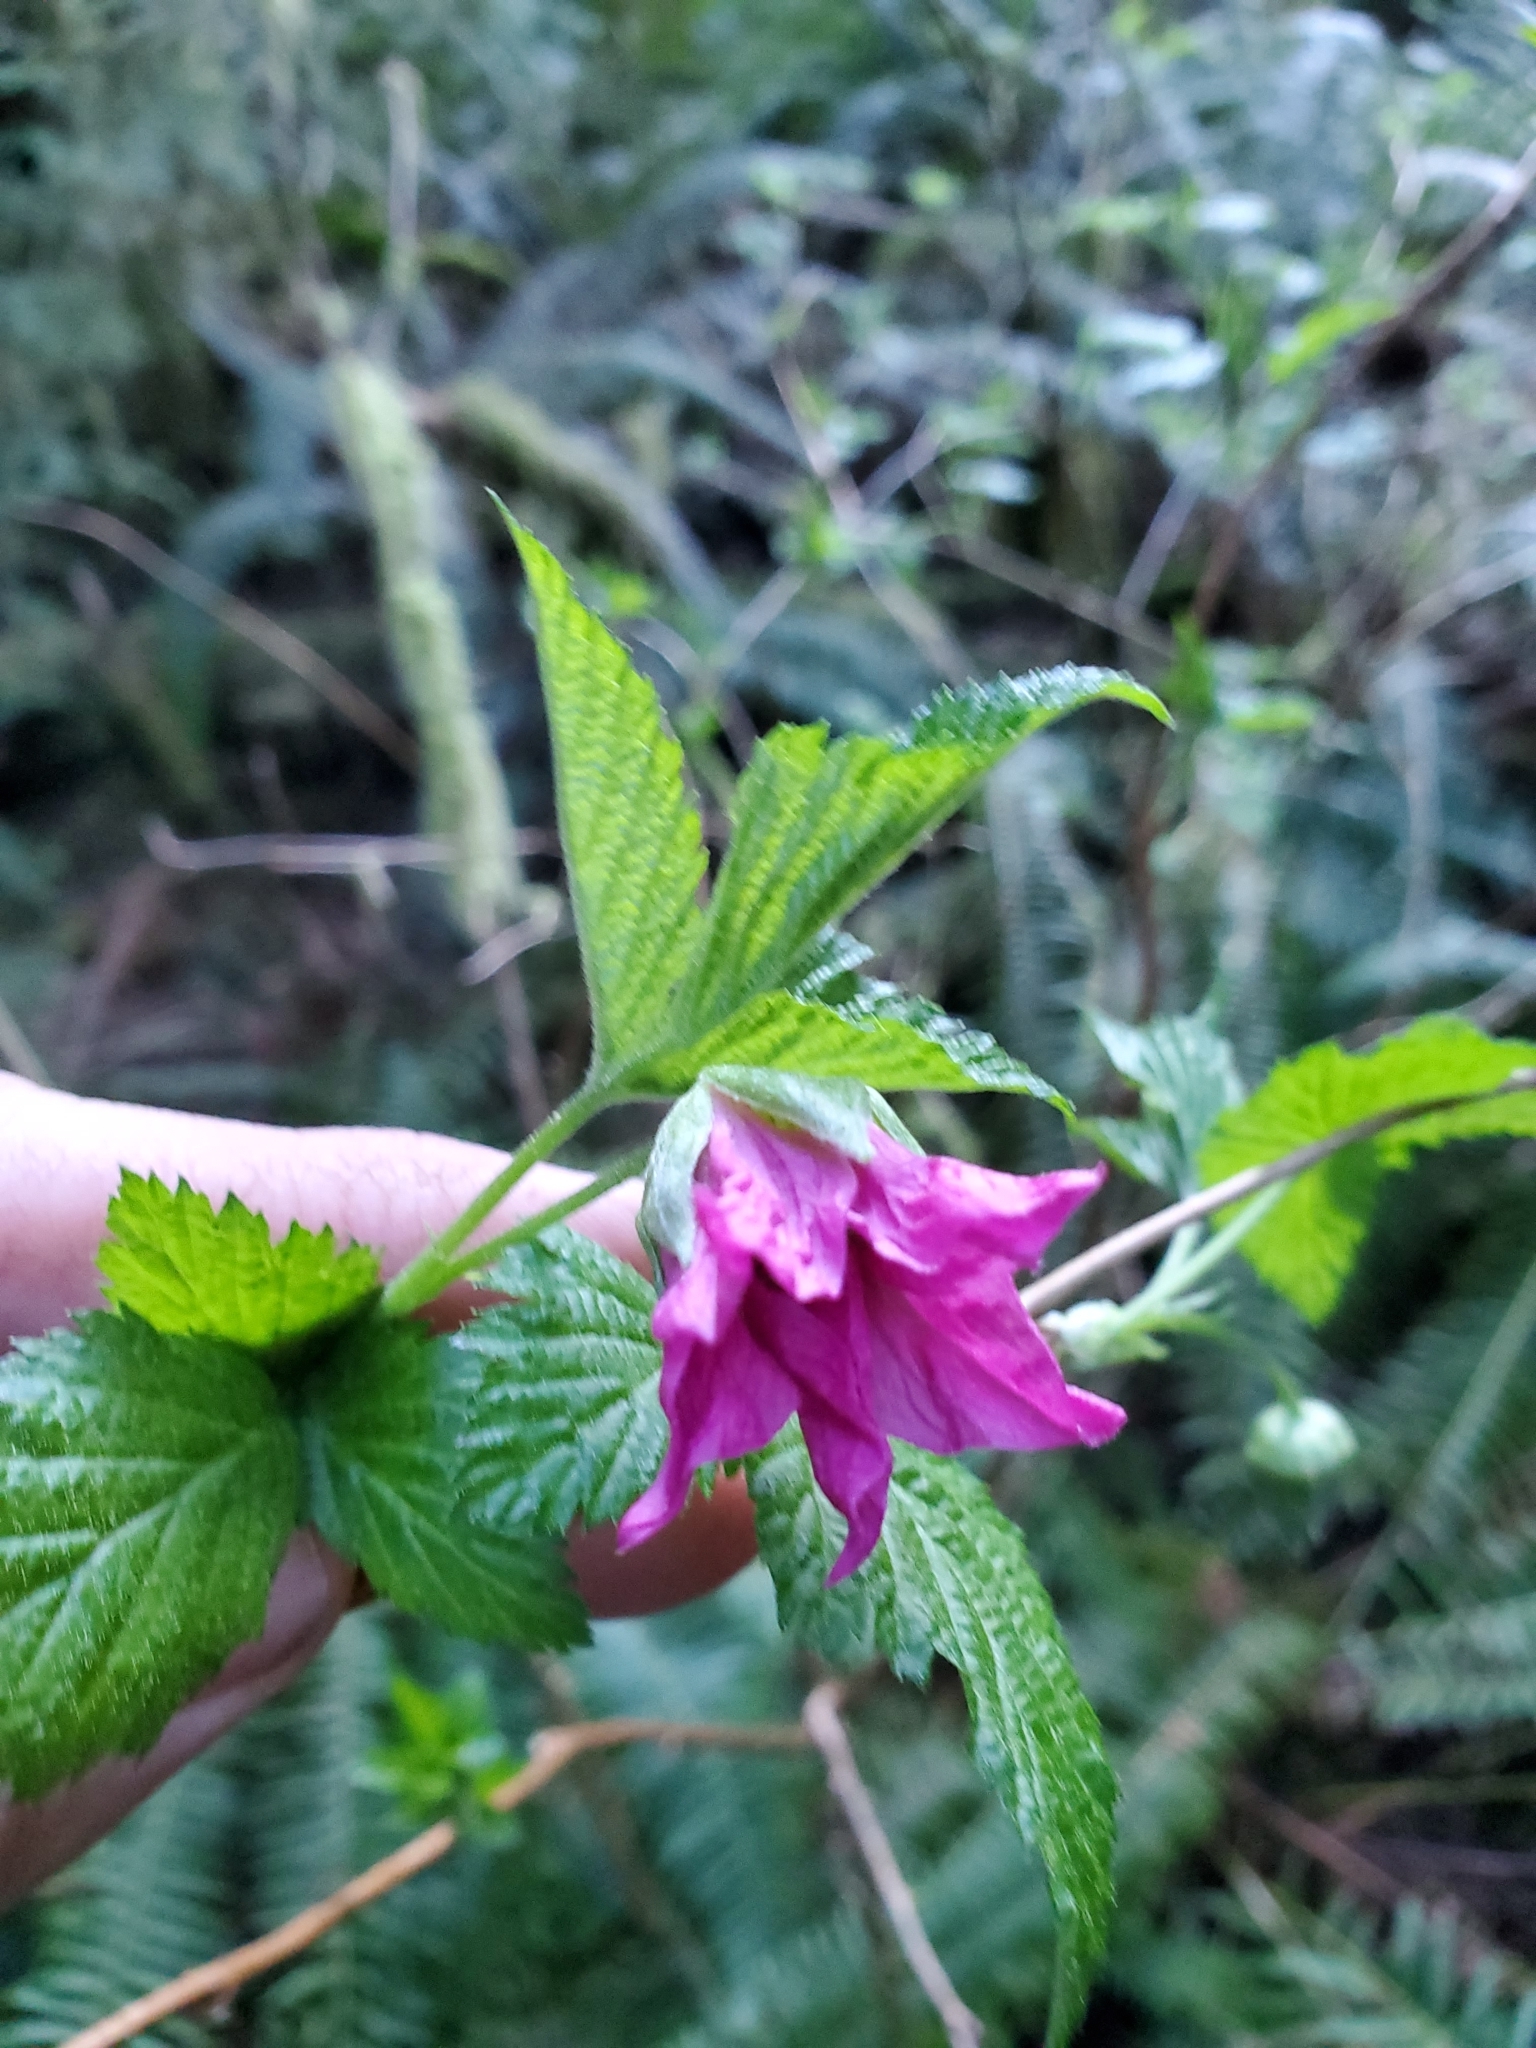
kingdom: Plantae
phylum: Tracheophyta
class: Magnoliopsida
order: Rosales
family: Rosaceae
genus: Rubus
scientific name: Rubus spectabilis
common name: Salmonberry
